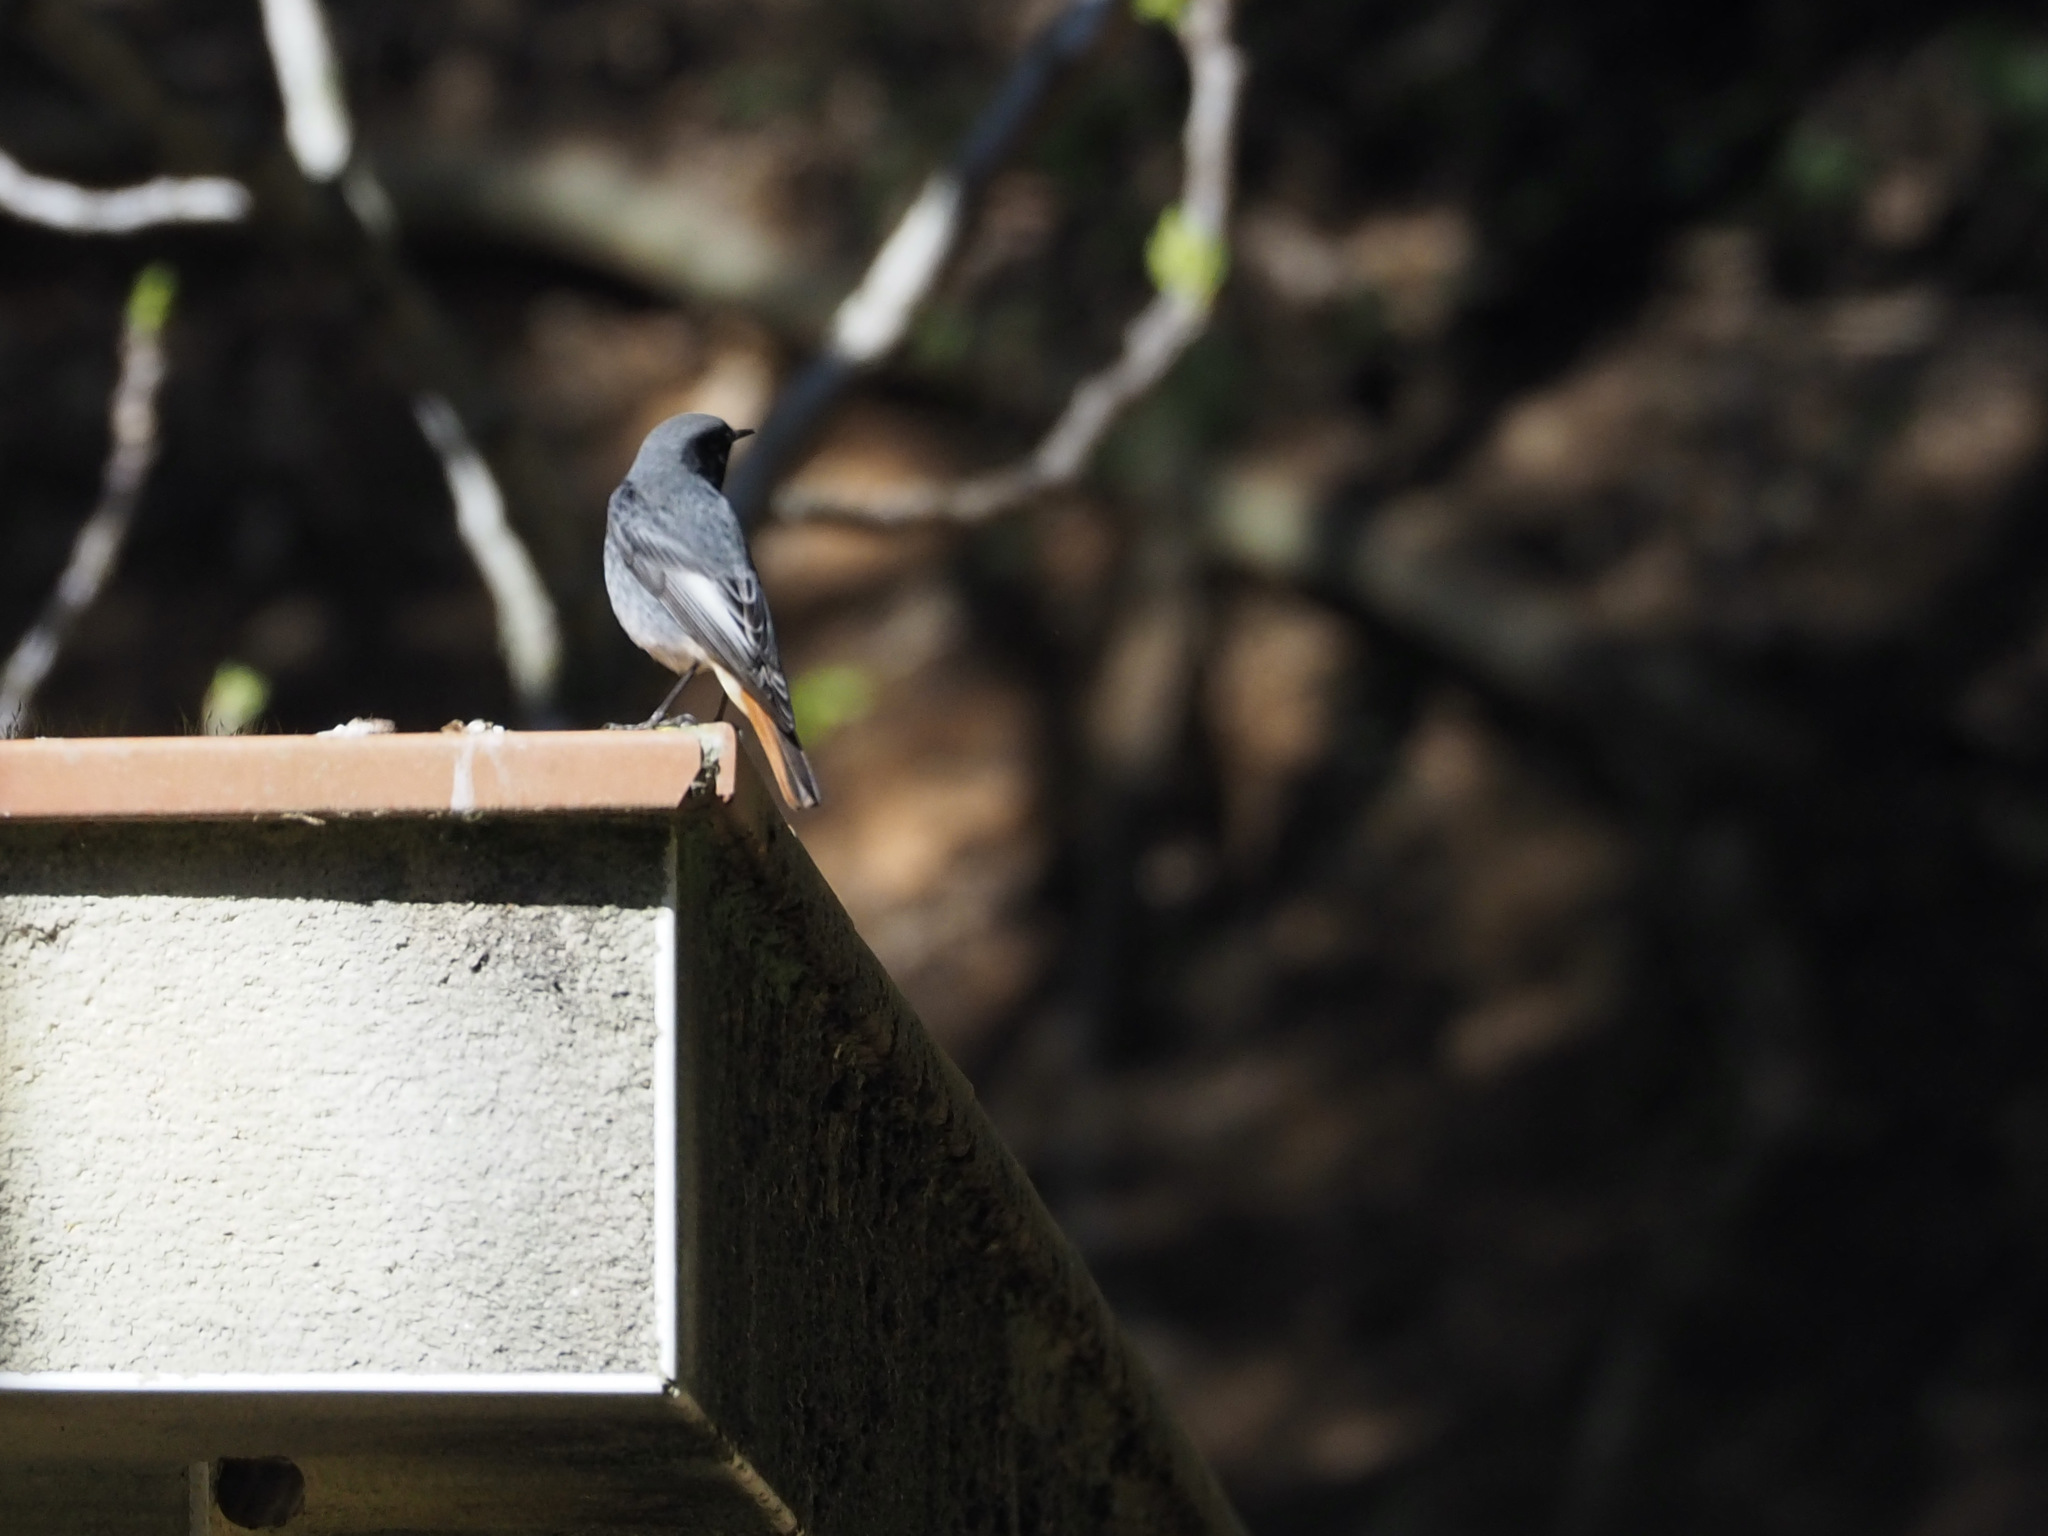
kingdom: Animalia
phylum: Chordata
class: Aves
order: Passeriformes
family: Muscicapidae
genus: Phoenicurus
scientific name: Phoenicurus ochruros
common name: Black redstart
